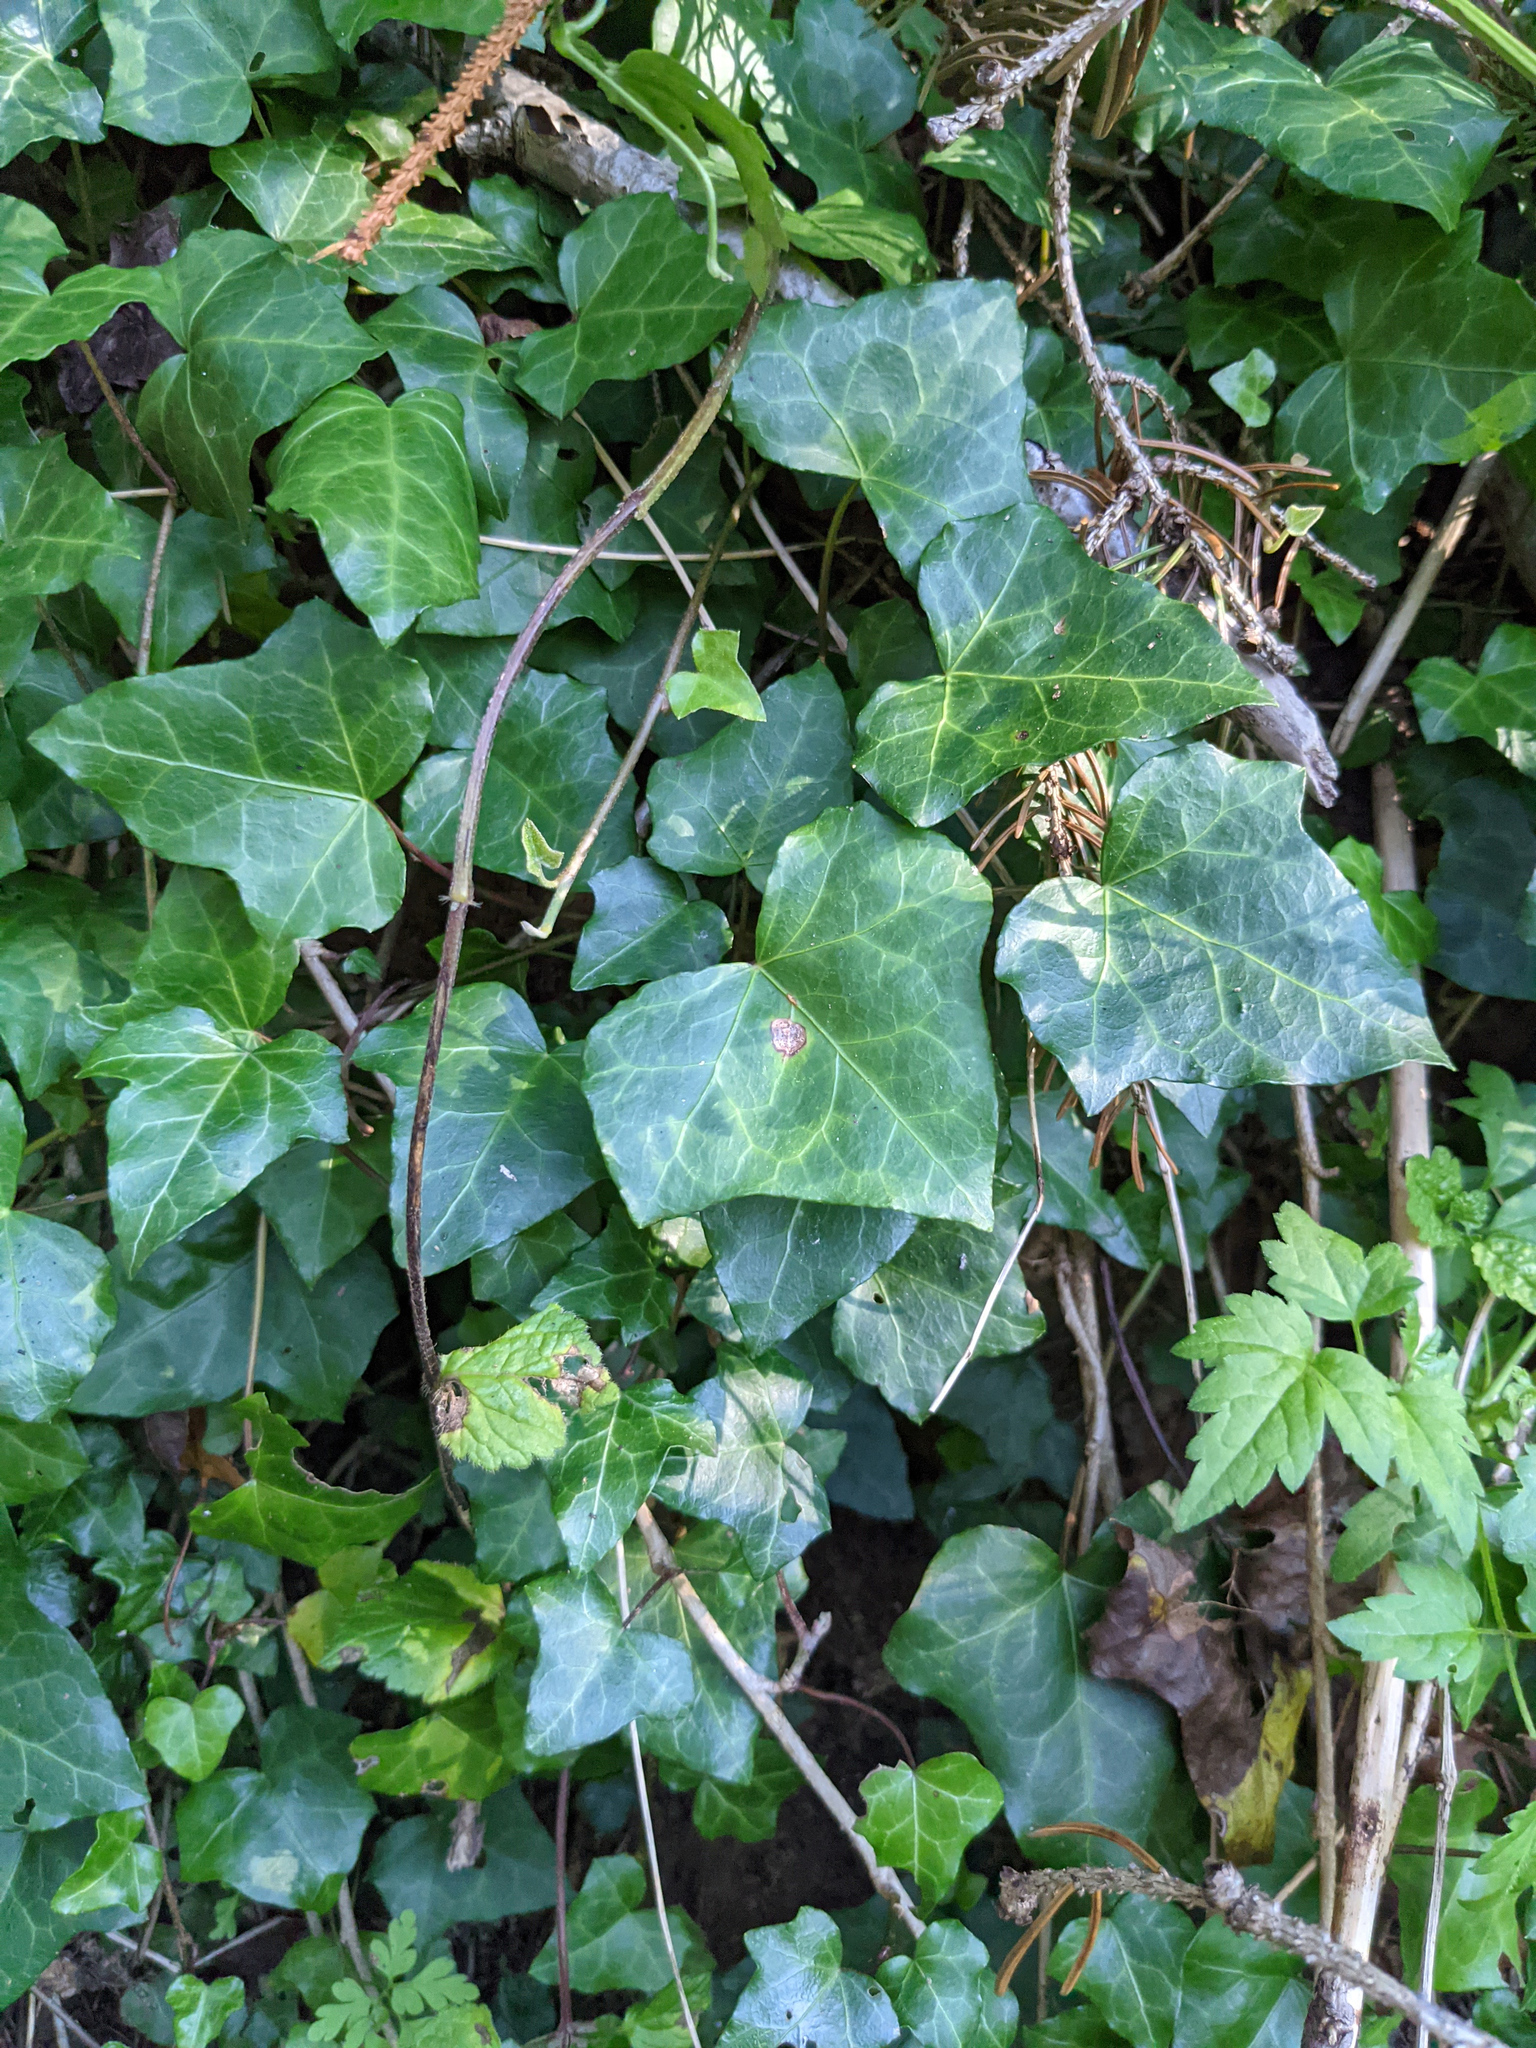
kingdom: Plantae
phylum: Tracheophyta
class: Magnoliopsida
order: Apiales
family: Araliaceae
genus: Hedera
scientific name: Hedera helix
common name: Ivy
